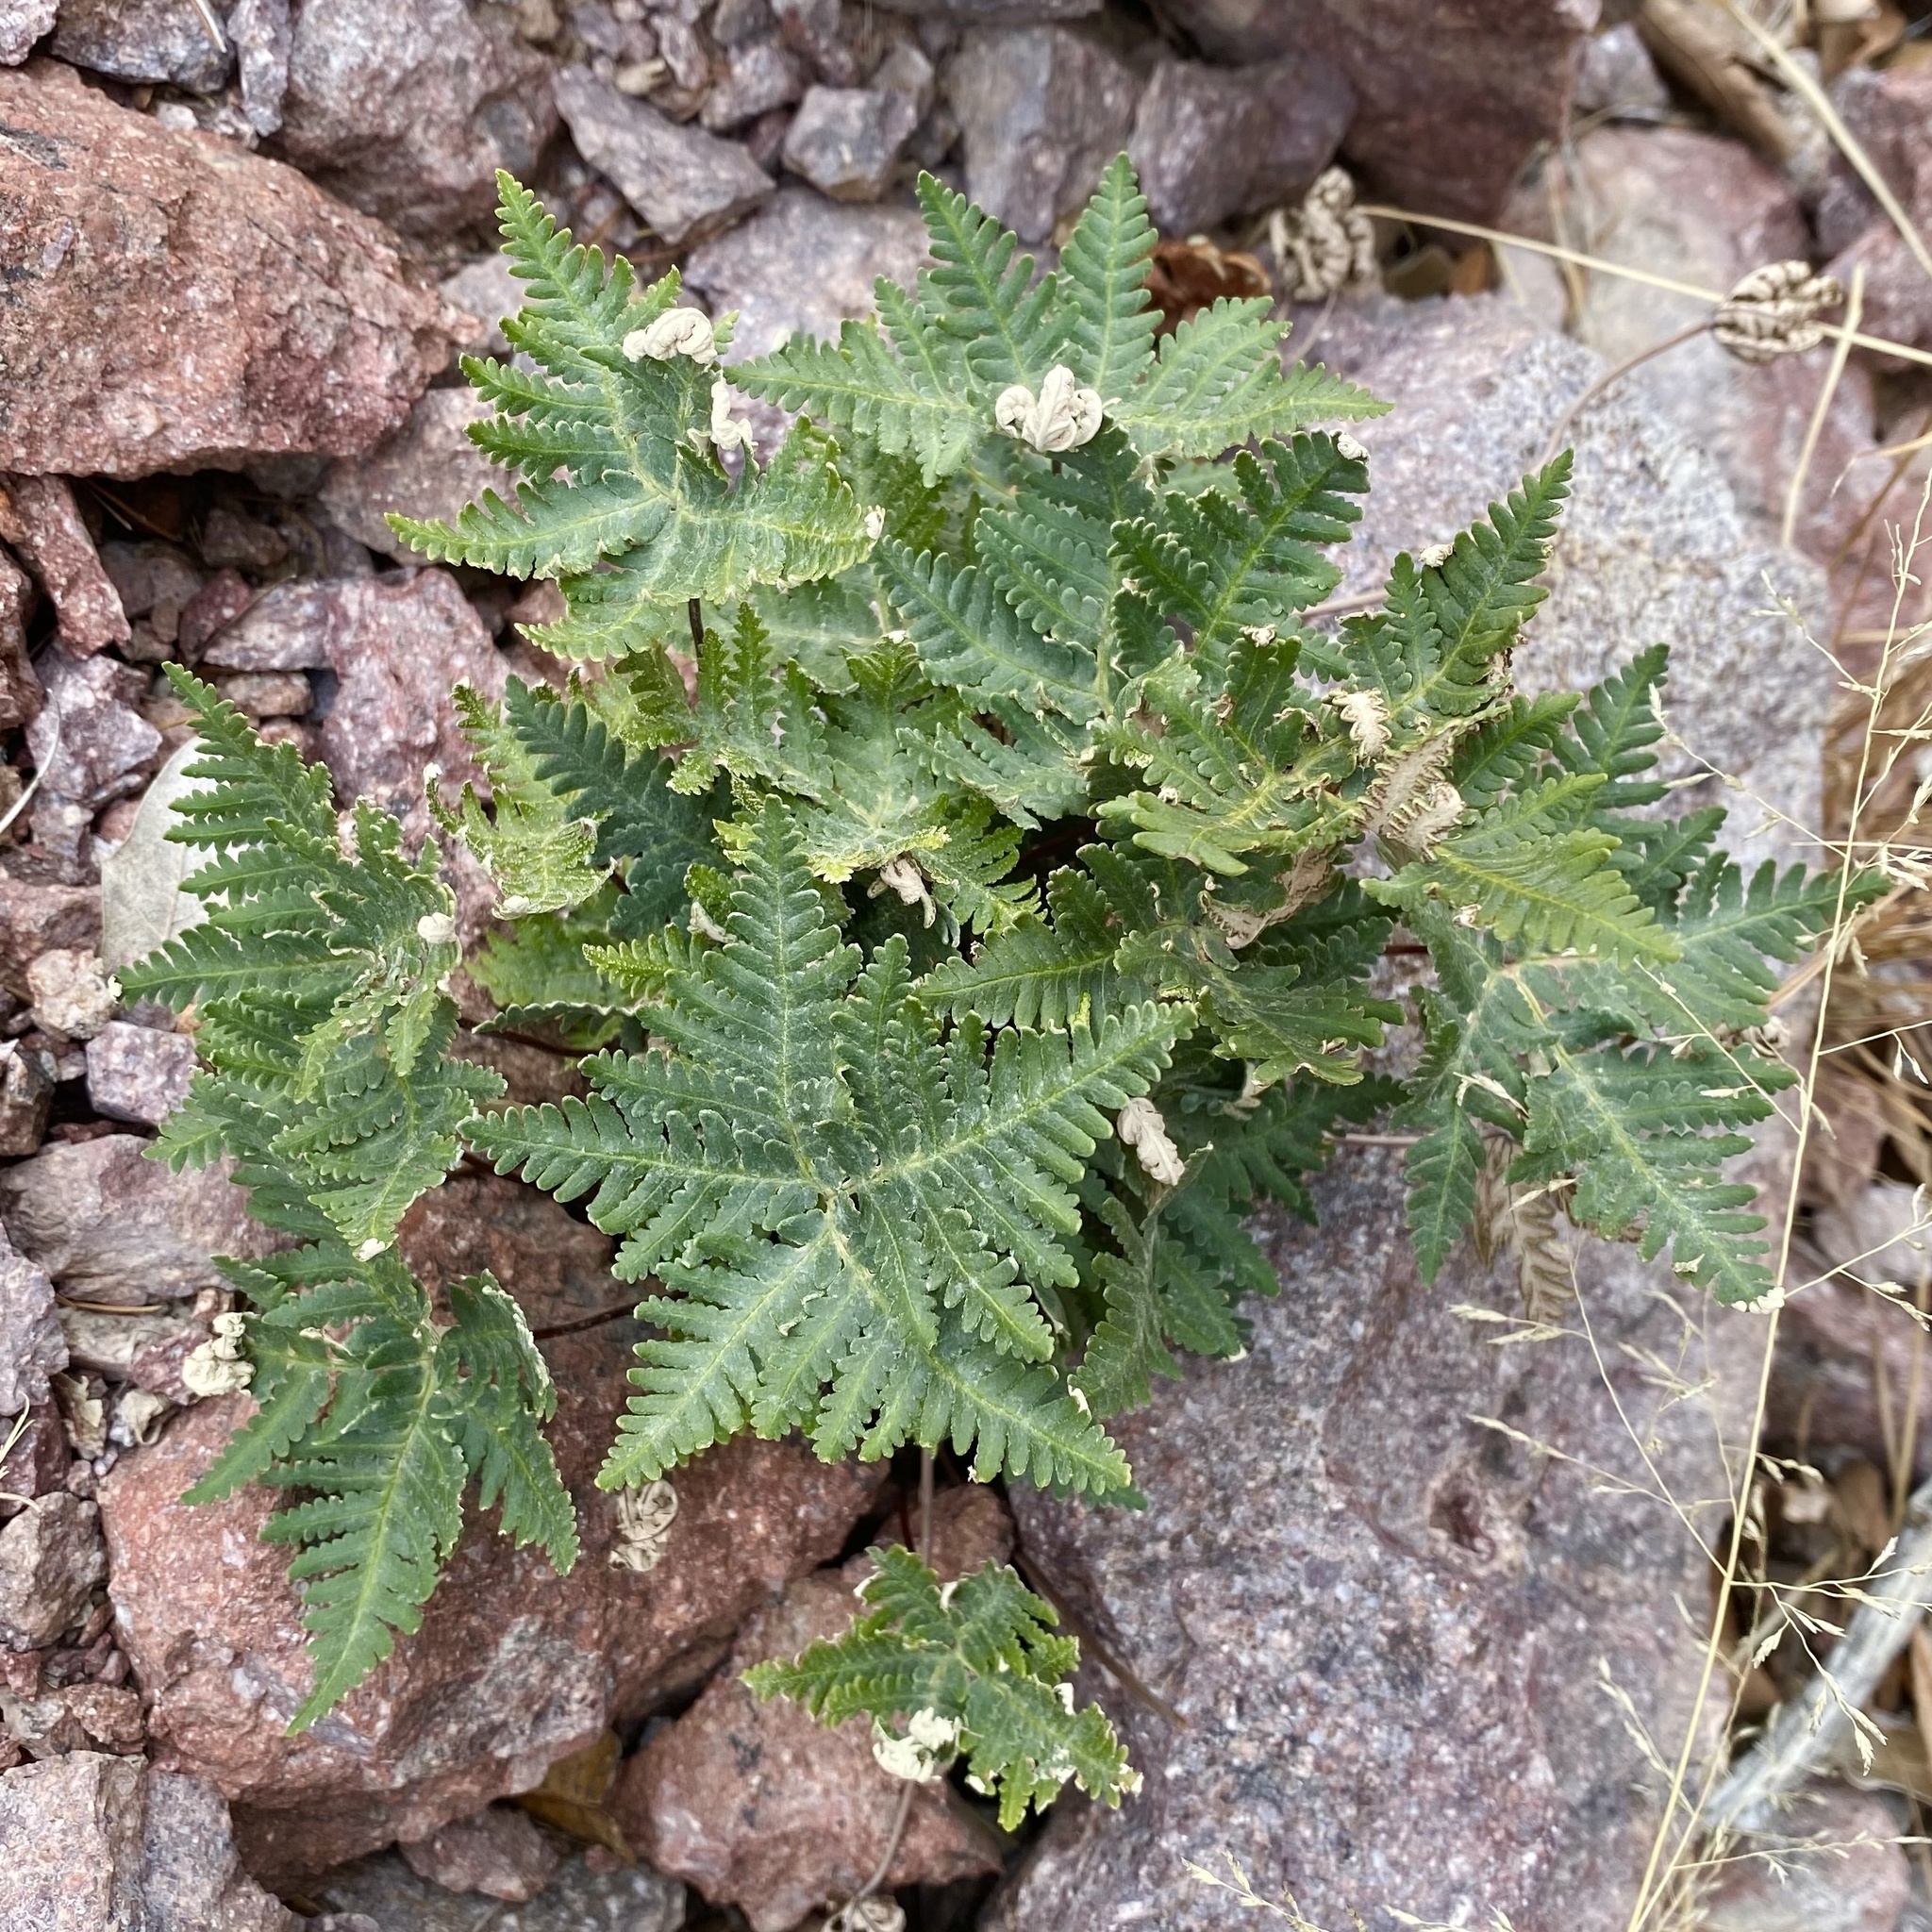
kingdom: Plantae
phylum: Tracheophyta
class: Polypodiopsida
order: Polypodiales
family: Pteridaceae
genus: Notholaena
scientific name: Notholaena standleyi
